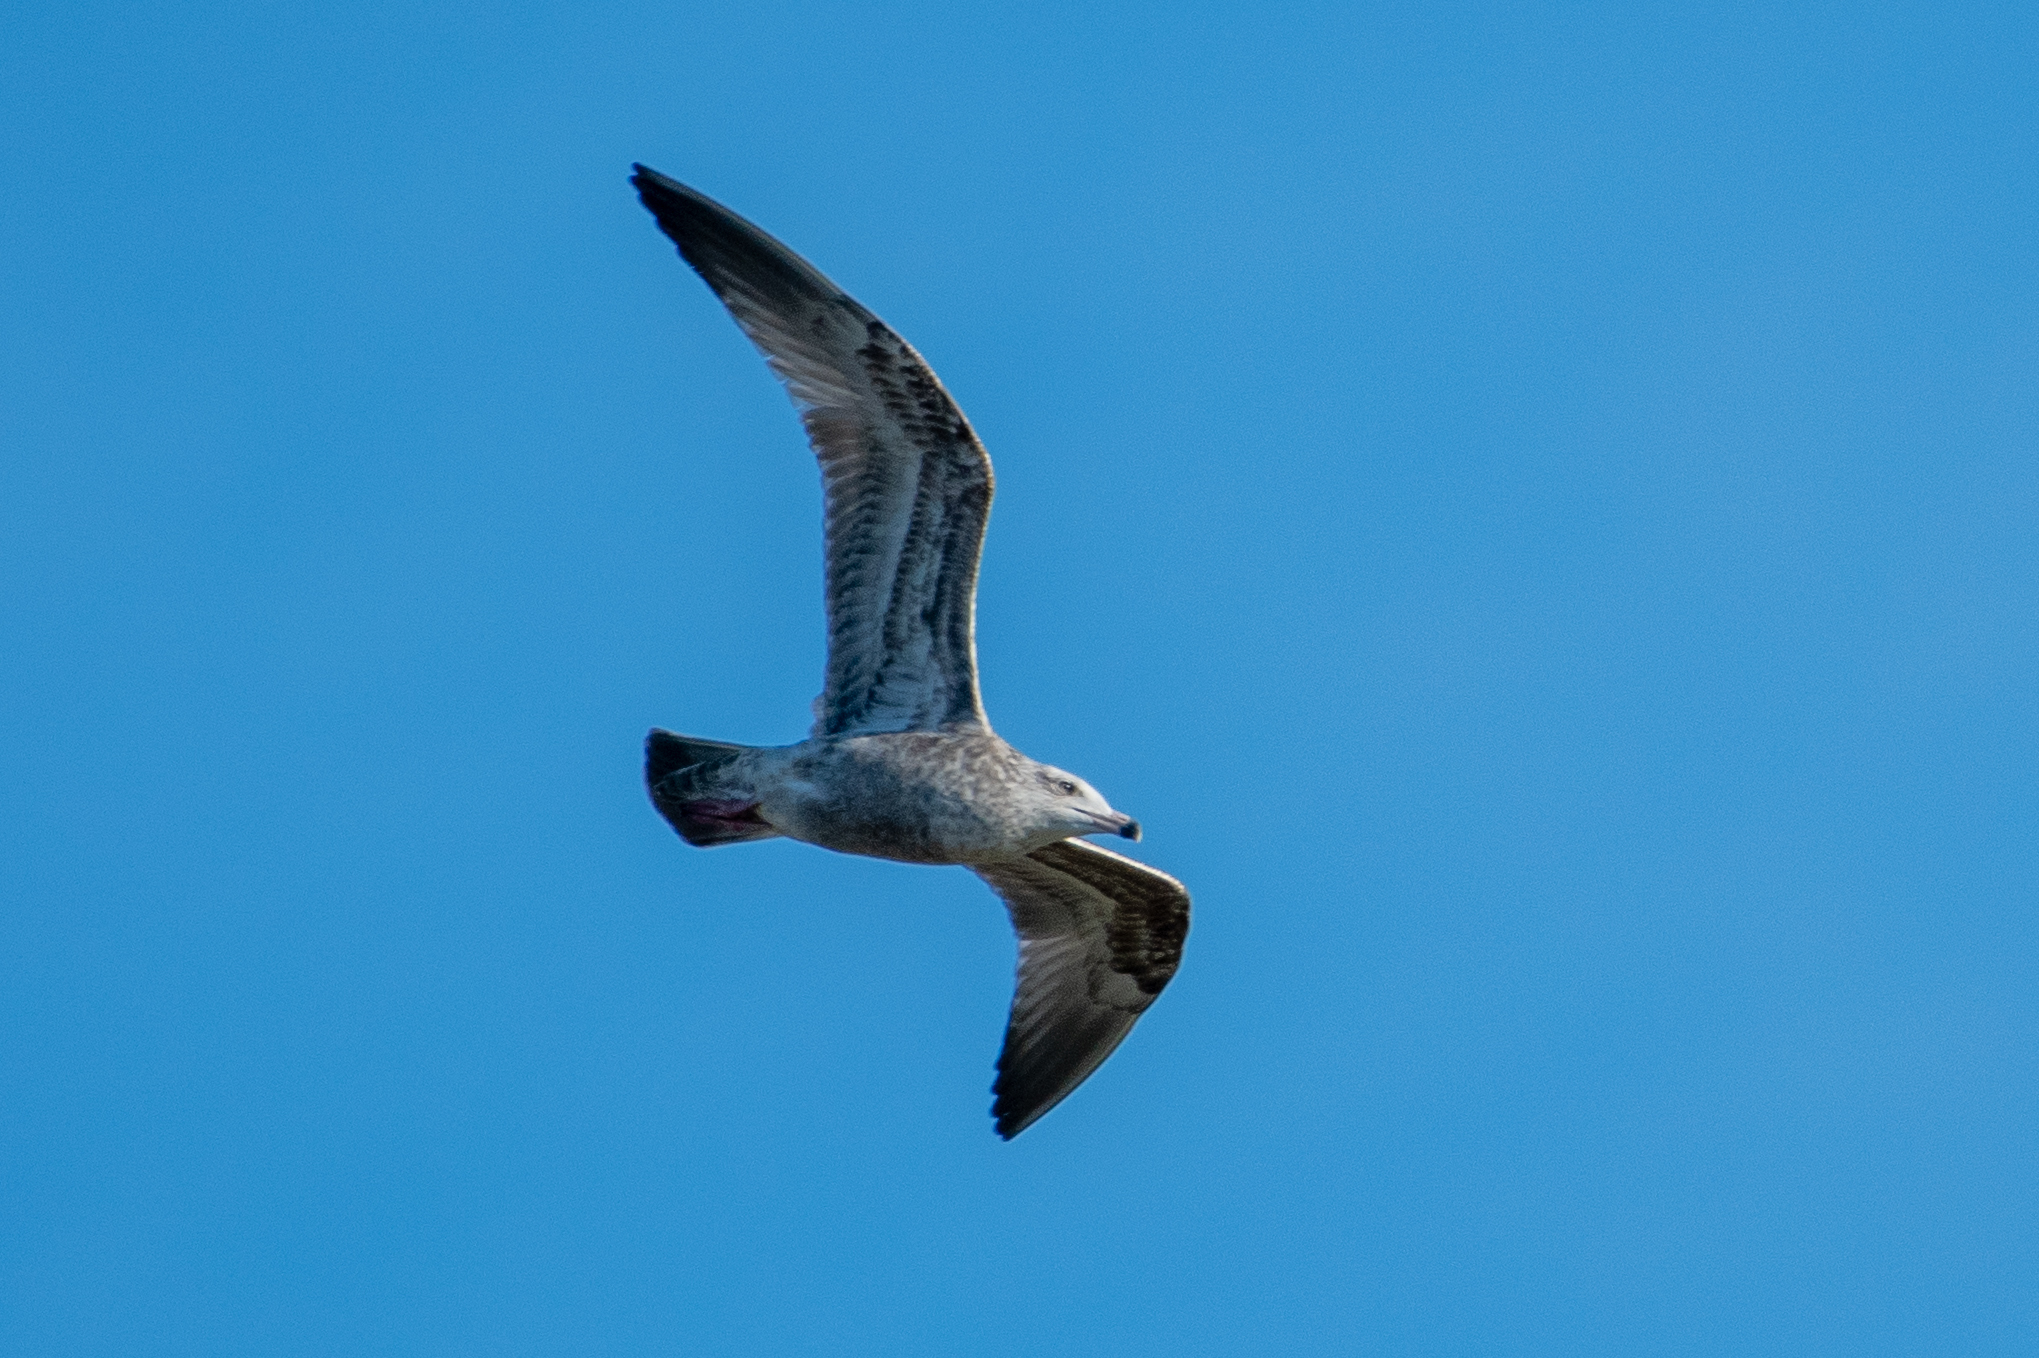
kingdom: Animalia
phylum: Chordata
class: Aves
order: Charadriiformes
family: Laridae
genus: Larus
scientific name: Larus argentatus
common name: Herring gull
